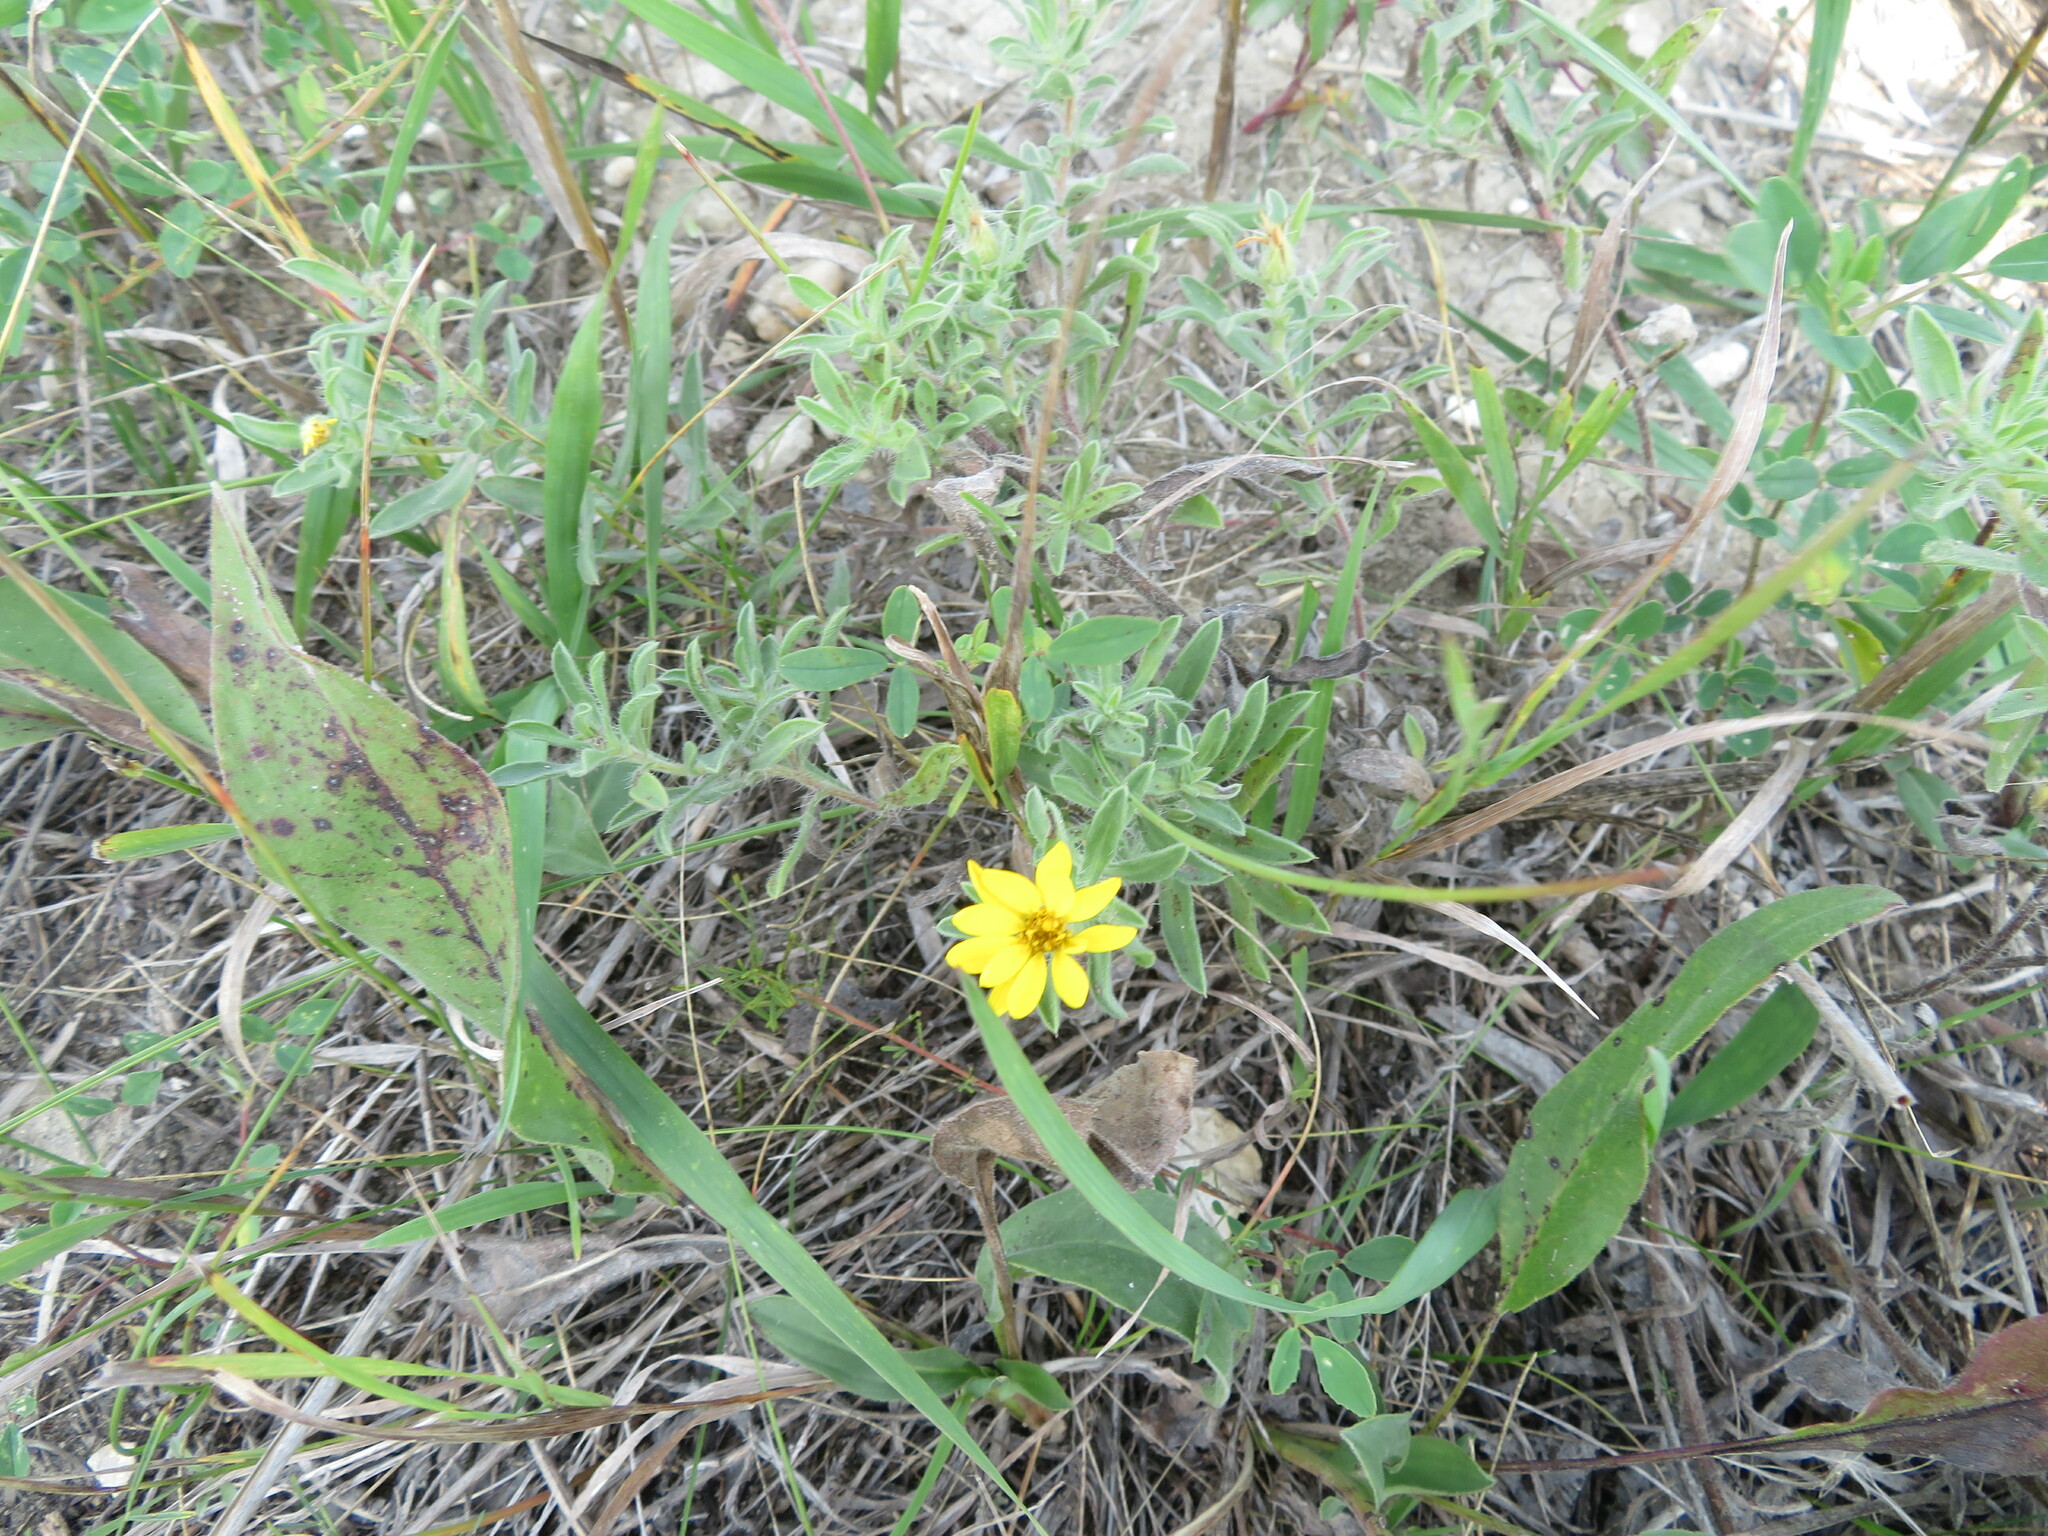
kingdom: Plantae
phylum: Tracheophyta
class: Magnoliopsida
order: Asterales
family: Asteraceae
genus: Heterotheca
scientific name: Heterotheca villosa
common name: Hairy false goldenaster
